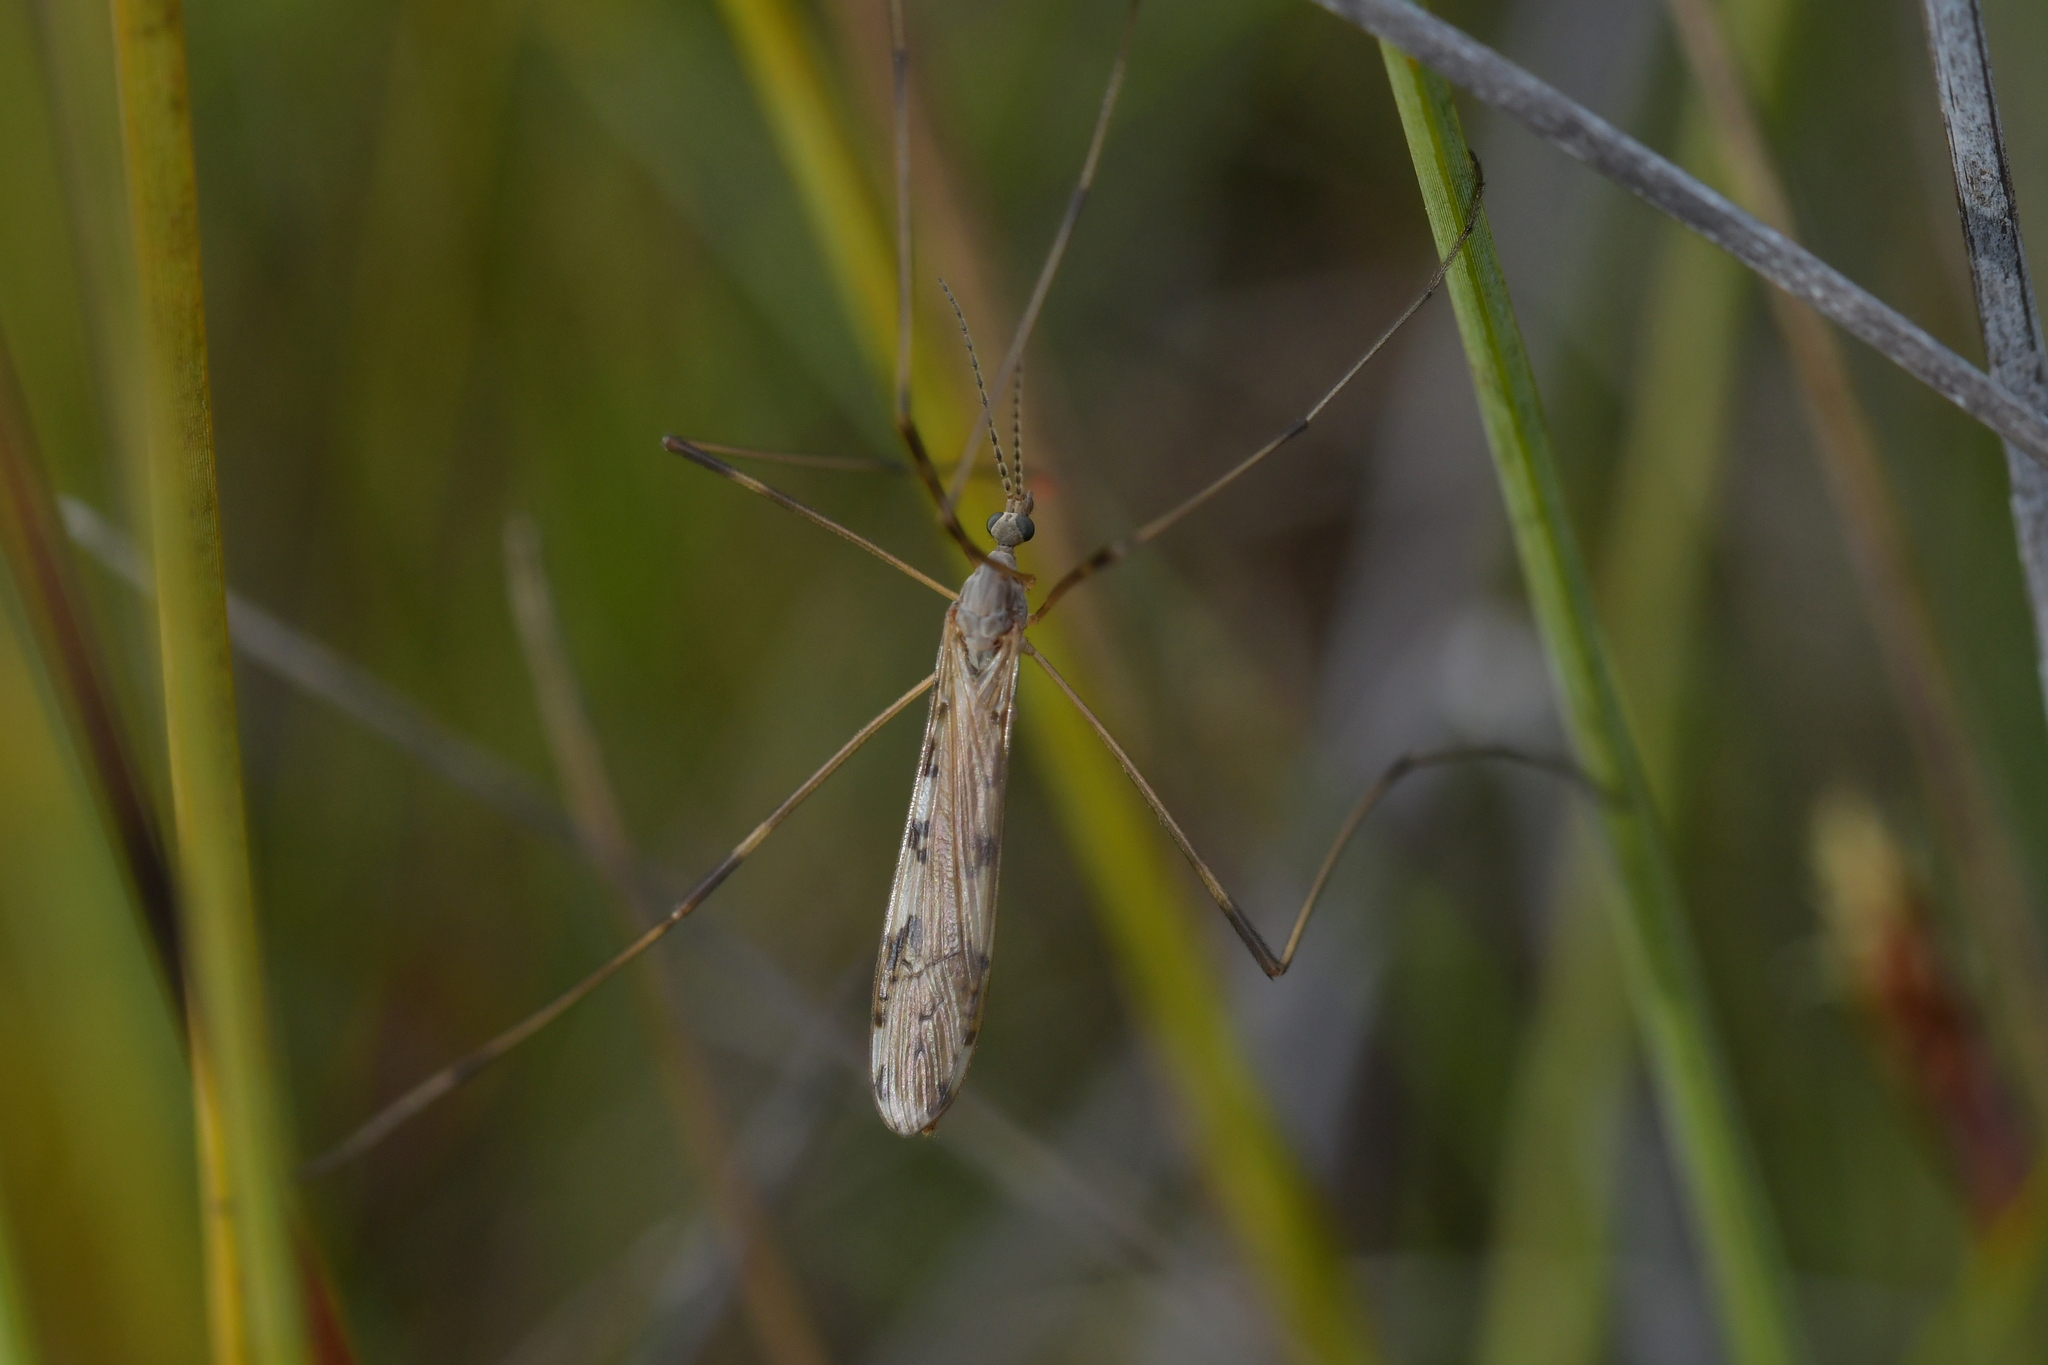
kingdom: Animalia
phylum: Arthropoda
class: Insecta
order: Diptera
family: Limoniidae
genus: Paralimnophila
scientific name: Paralimnophila skusei
